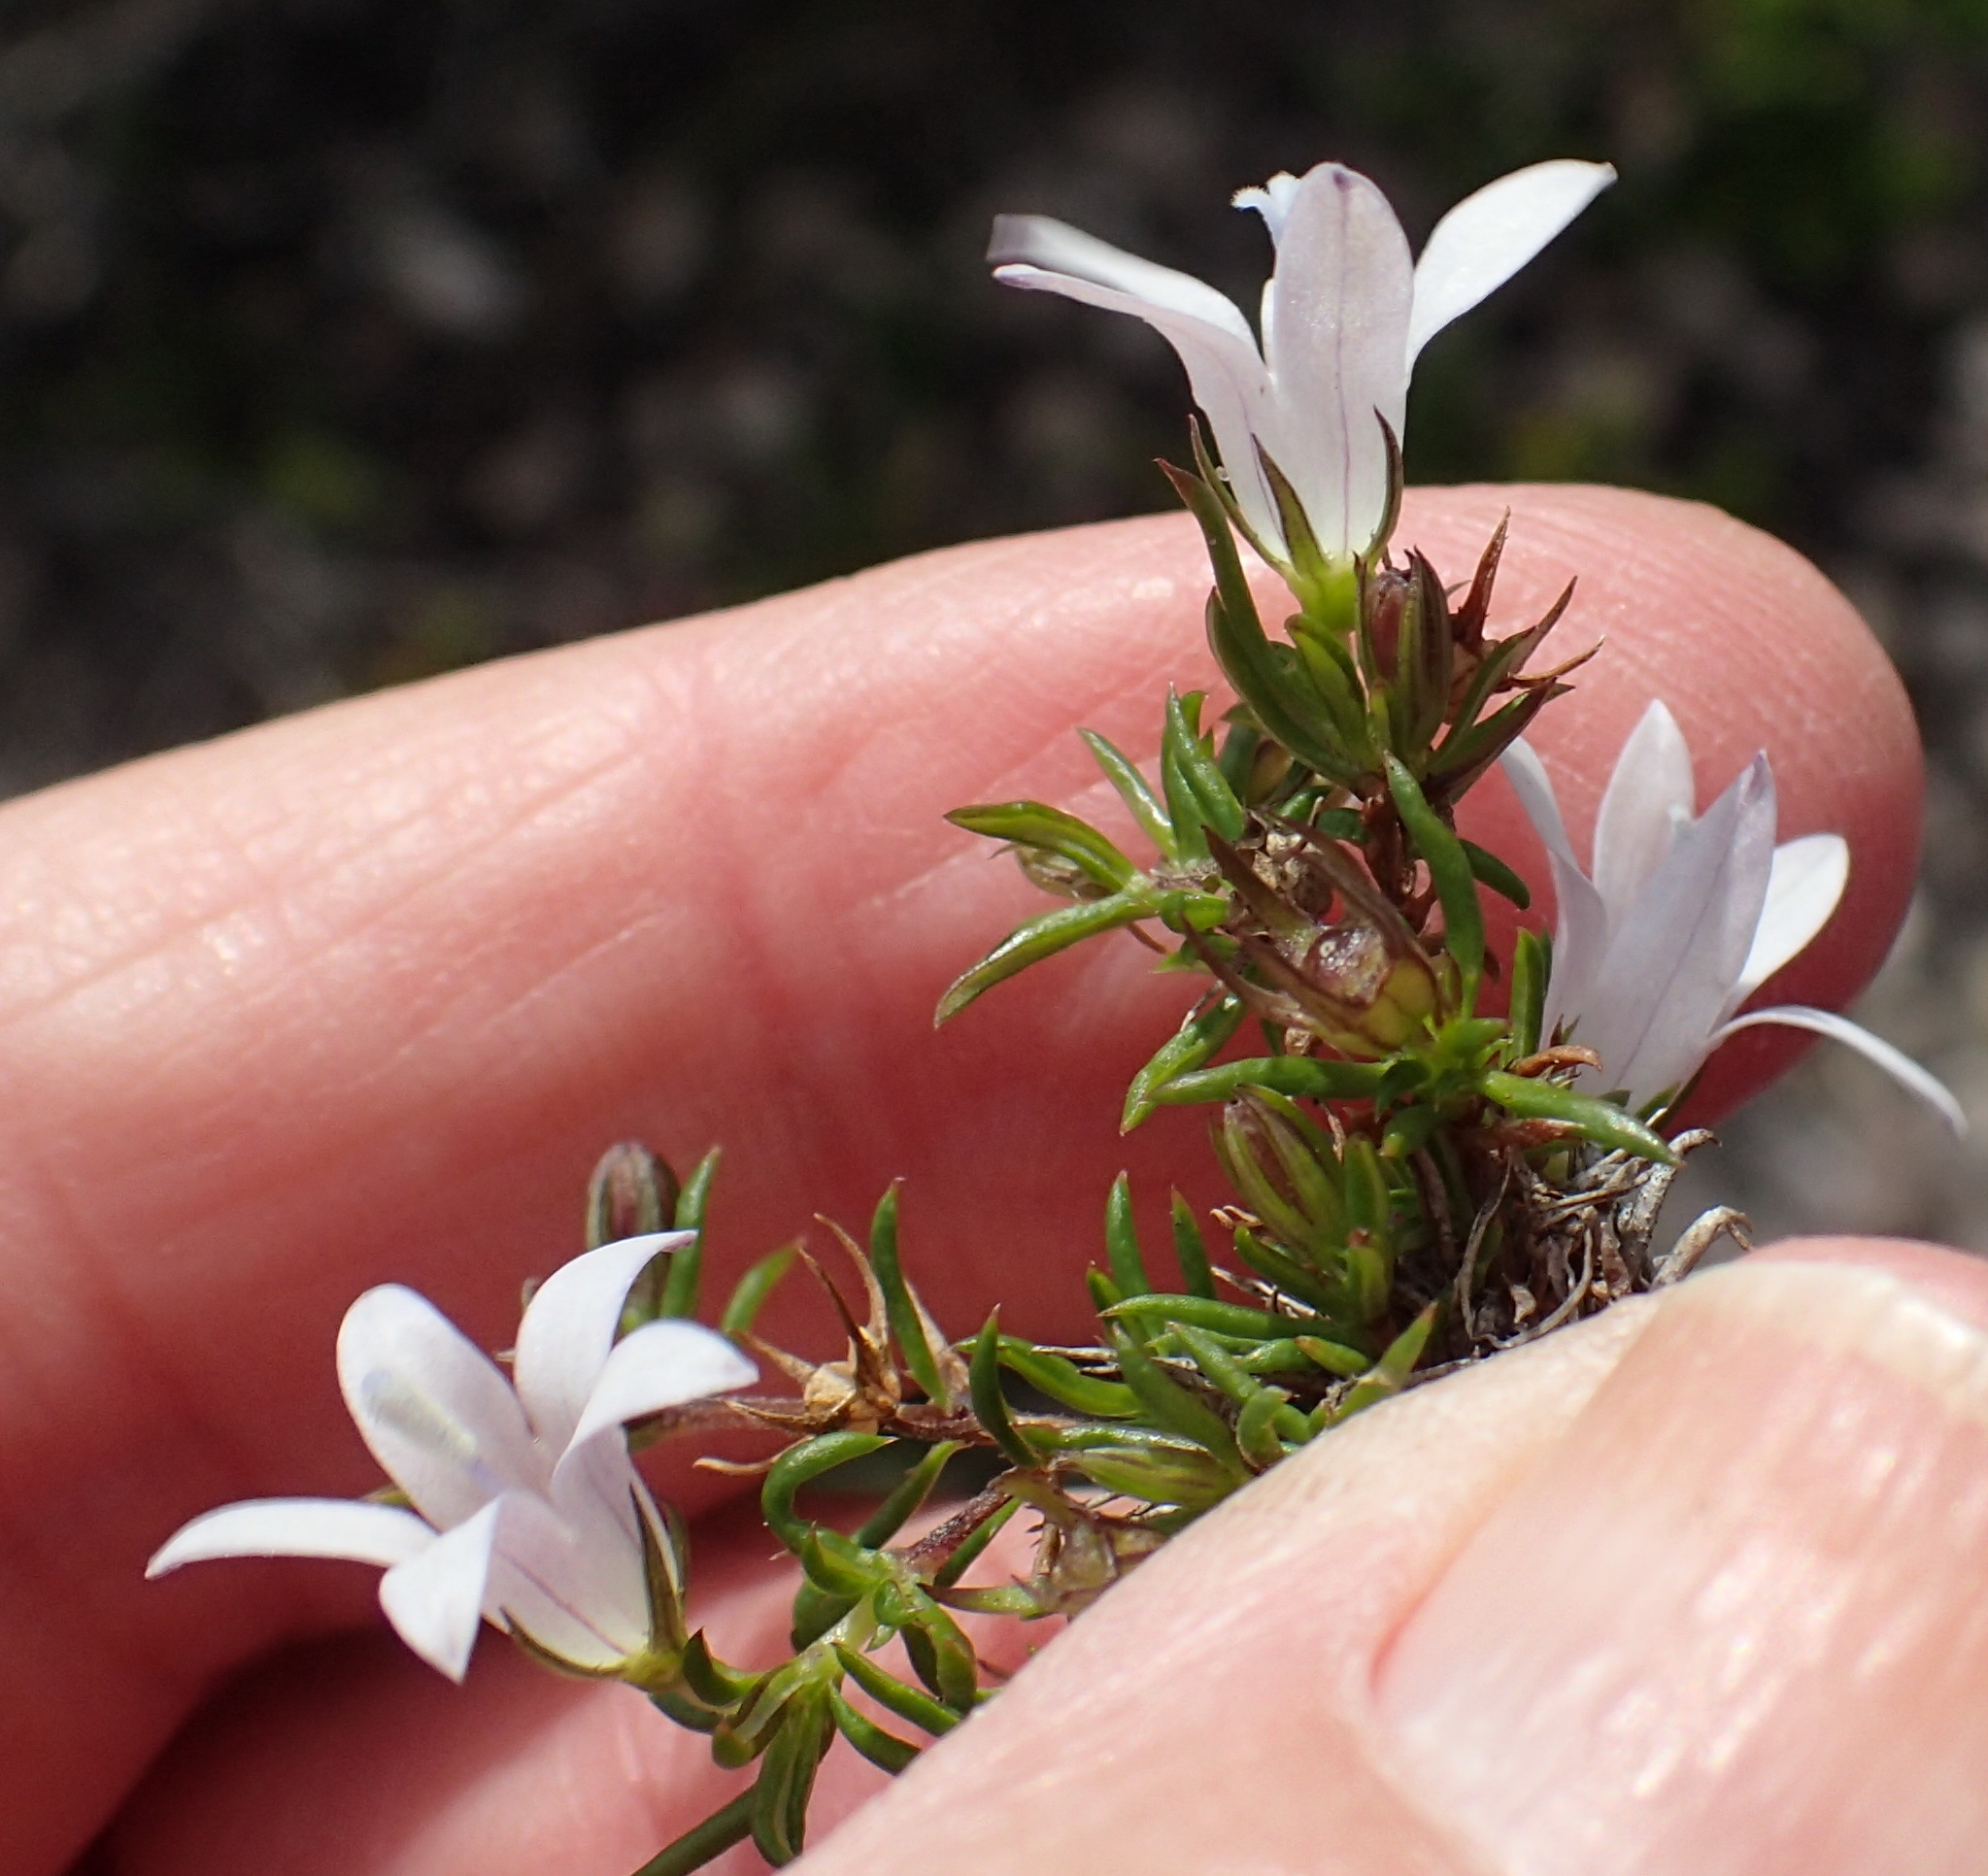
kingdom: Plantae
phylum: Tracheophyta
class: Magnoliopsida
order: Asterales
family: Campanulaceae
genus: Wahlenbergia
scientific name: Wahlenbergia thunbergii
